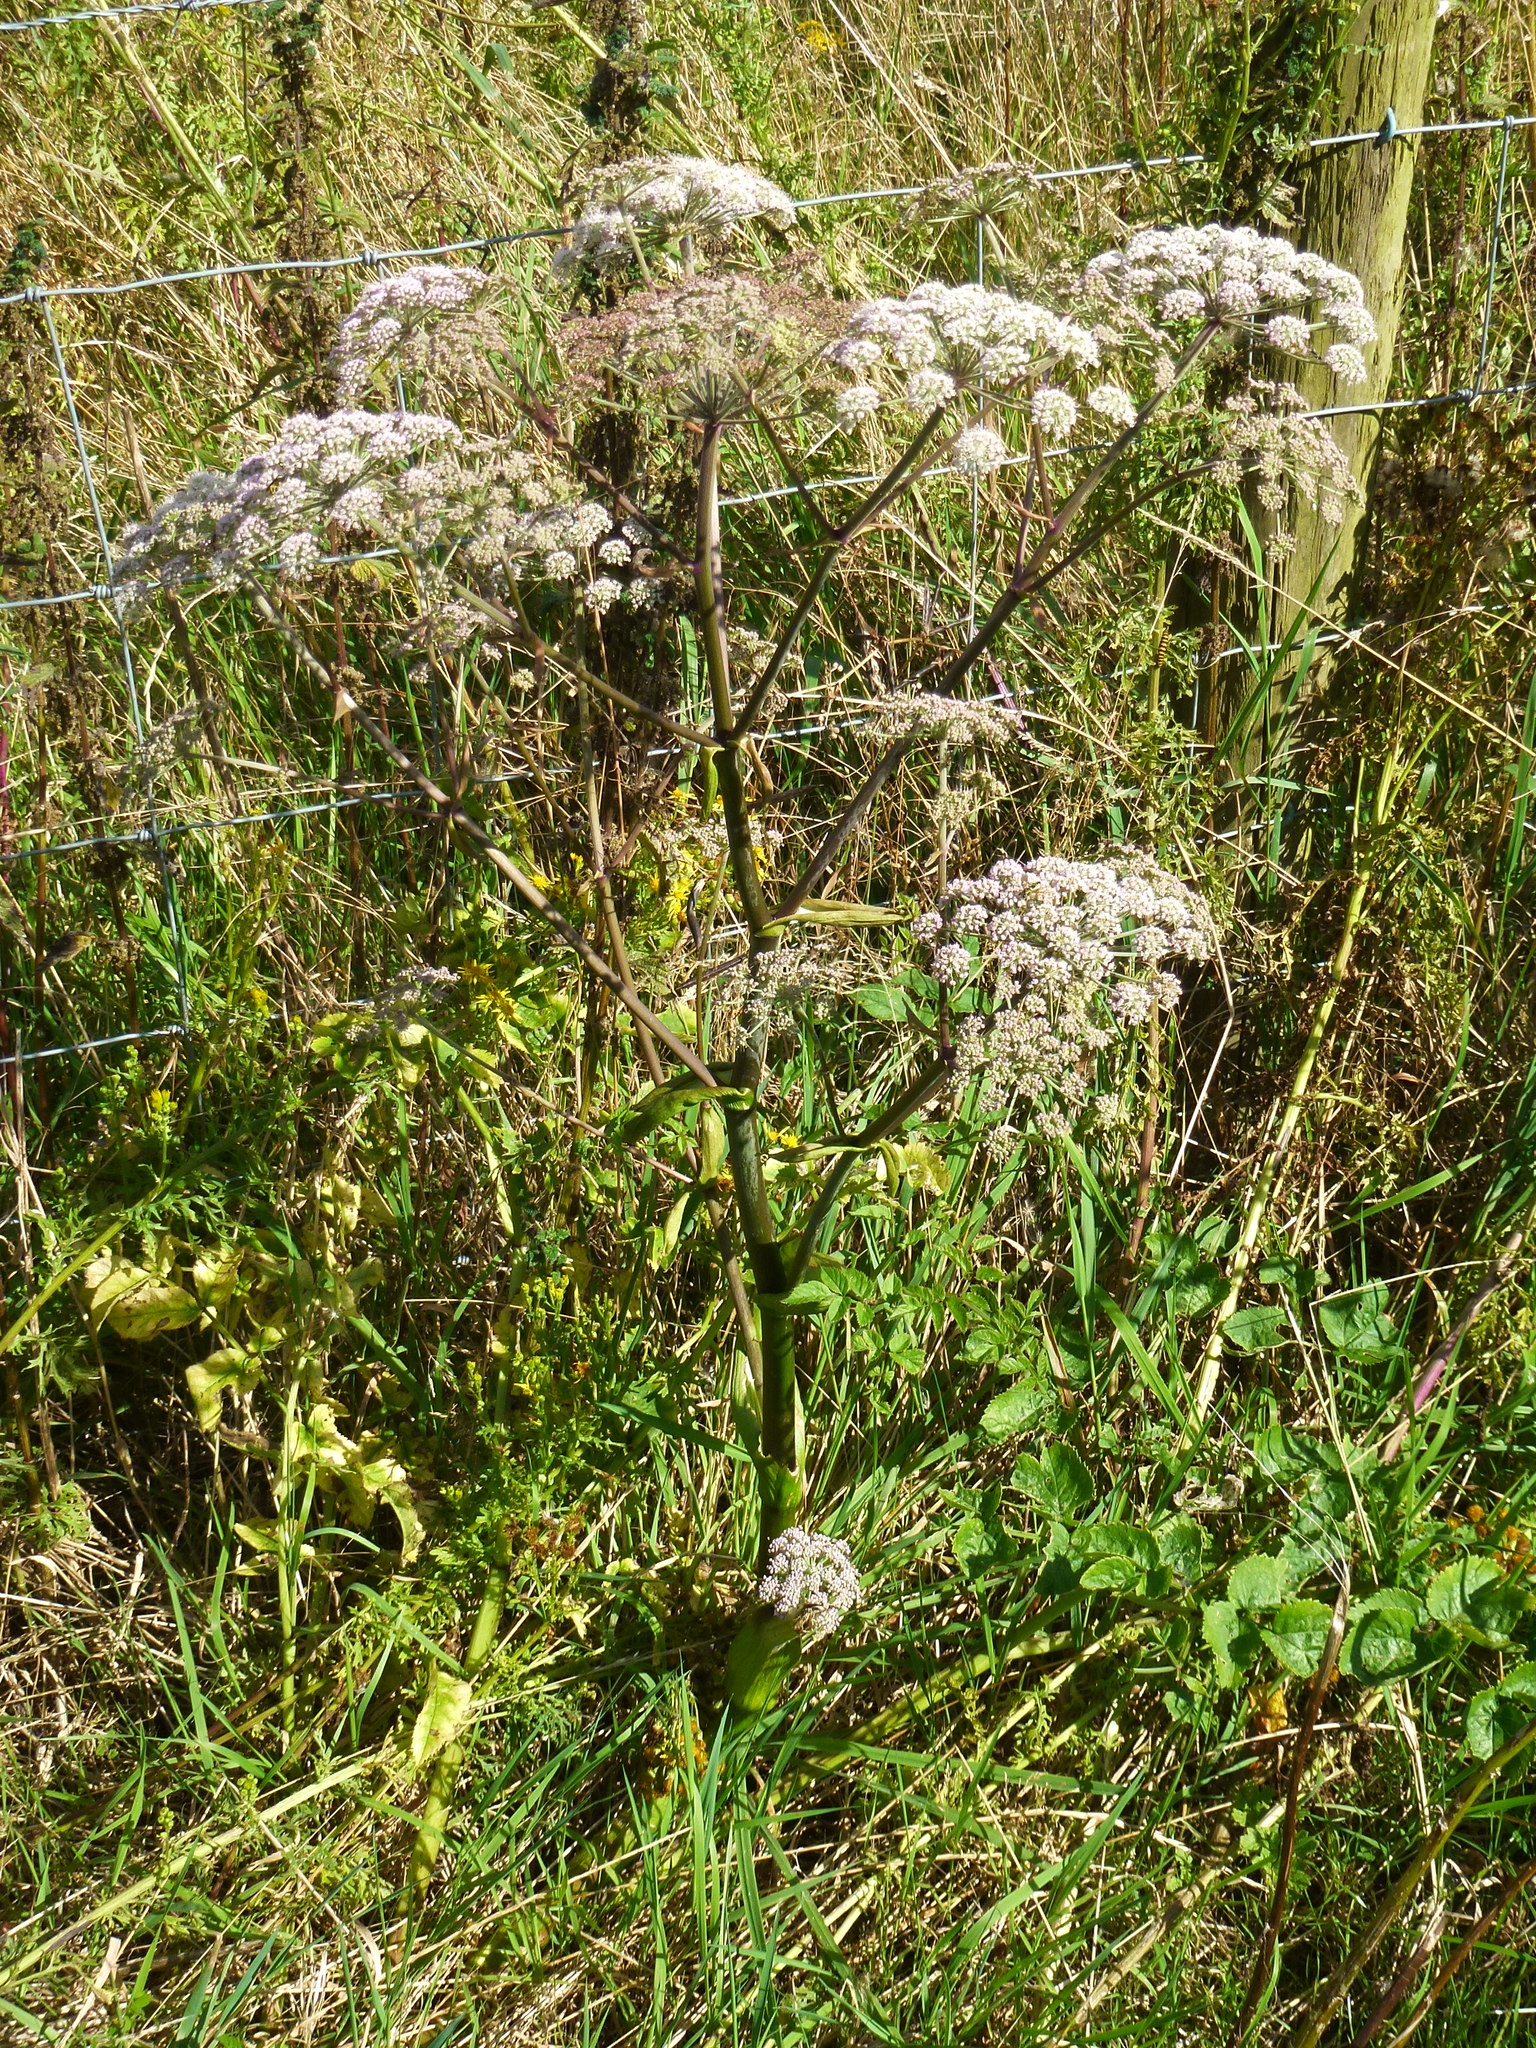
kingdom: Plantae
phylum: Tracheophyta
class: Magnoliopsida
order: Apiales
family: Apiaceae
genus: Angelica
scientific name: Angelica sylvestris
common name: Wild angelica
